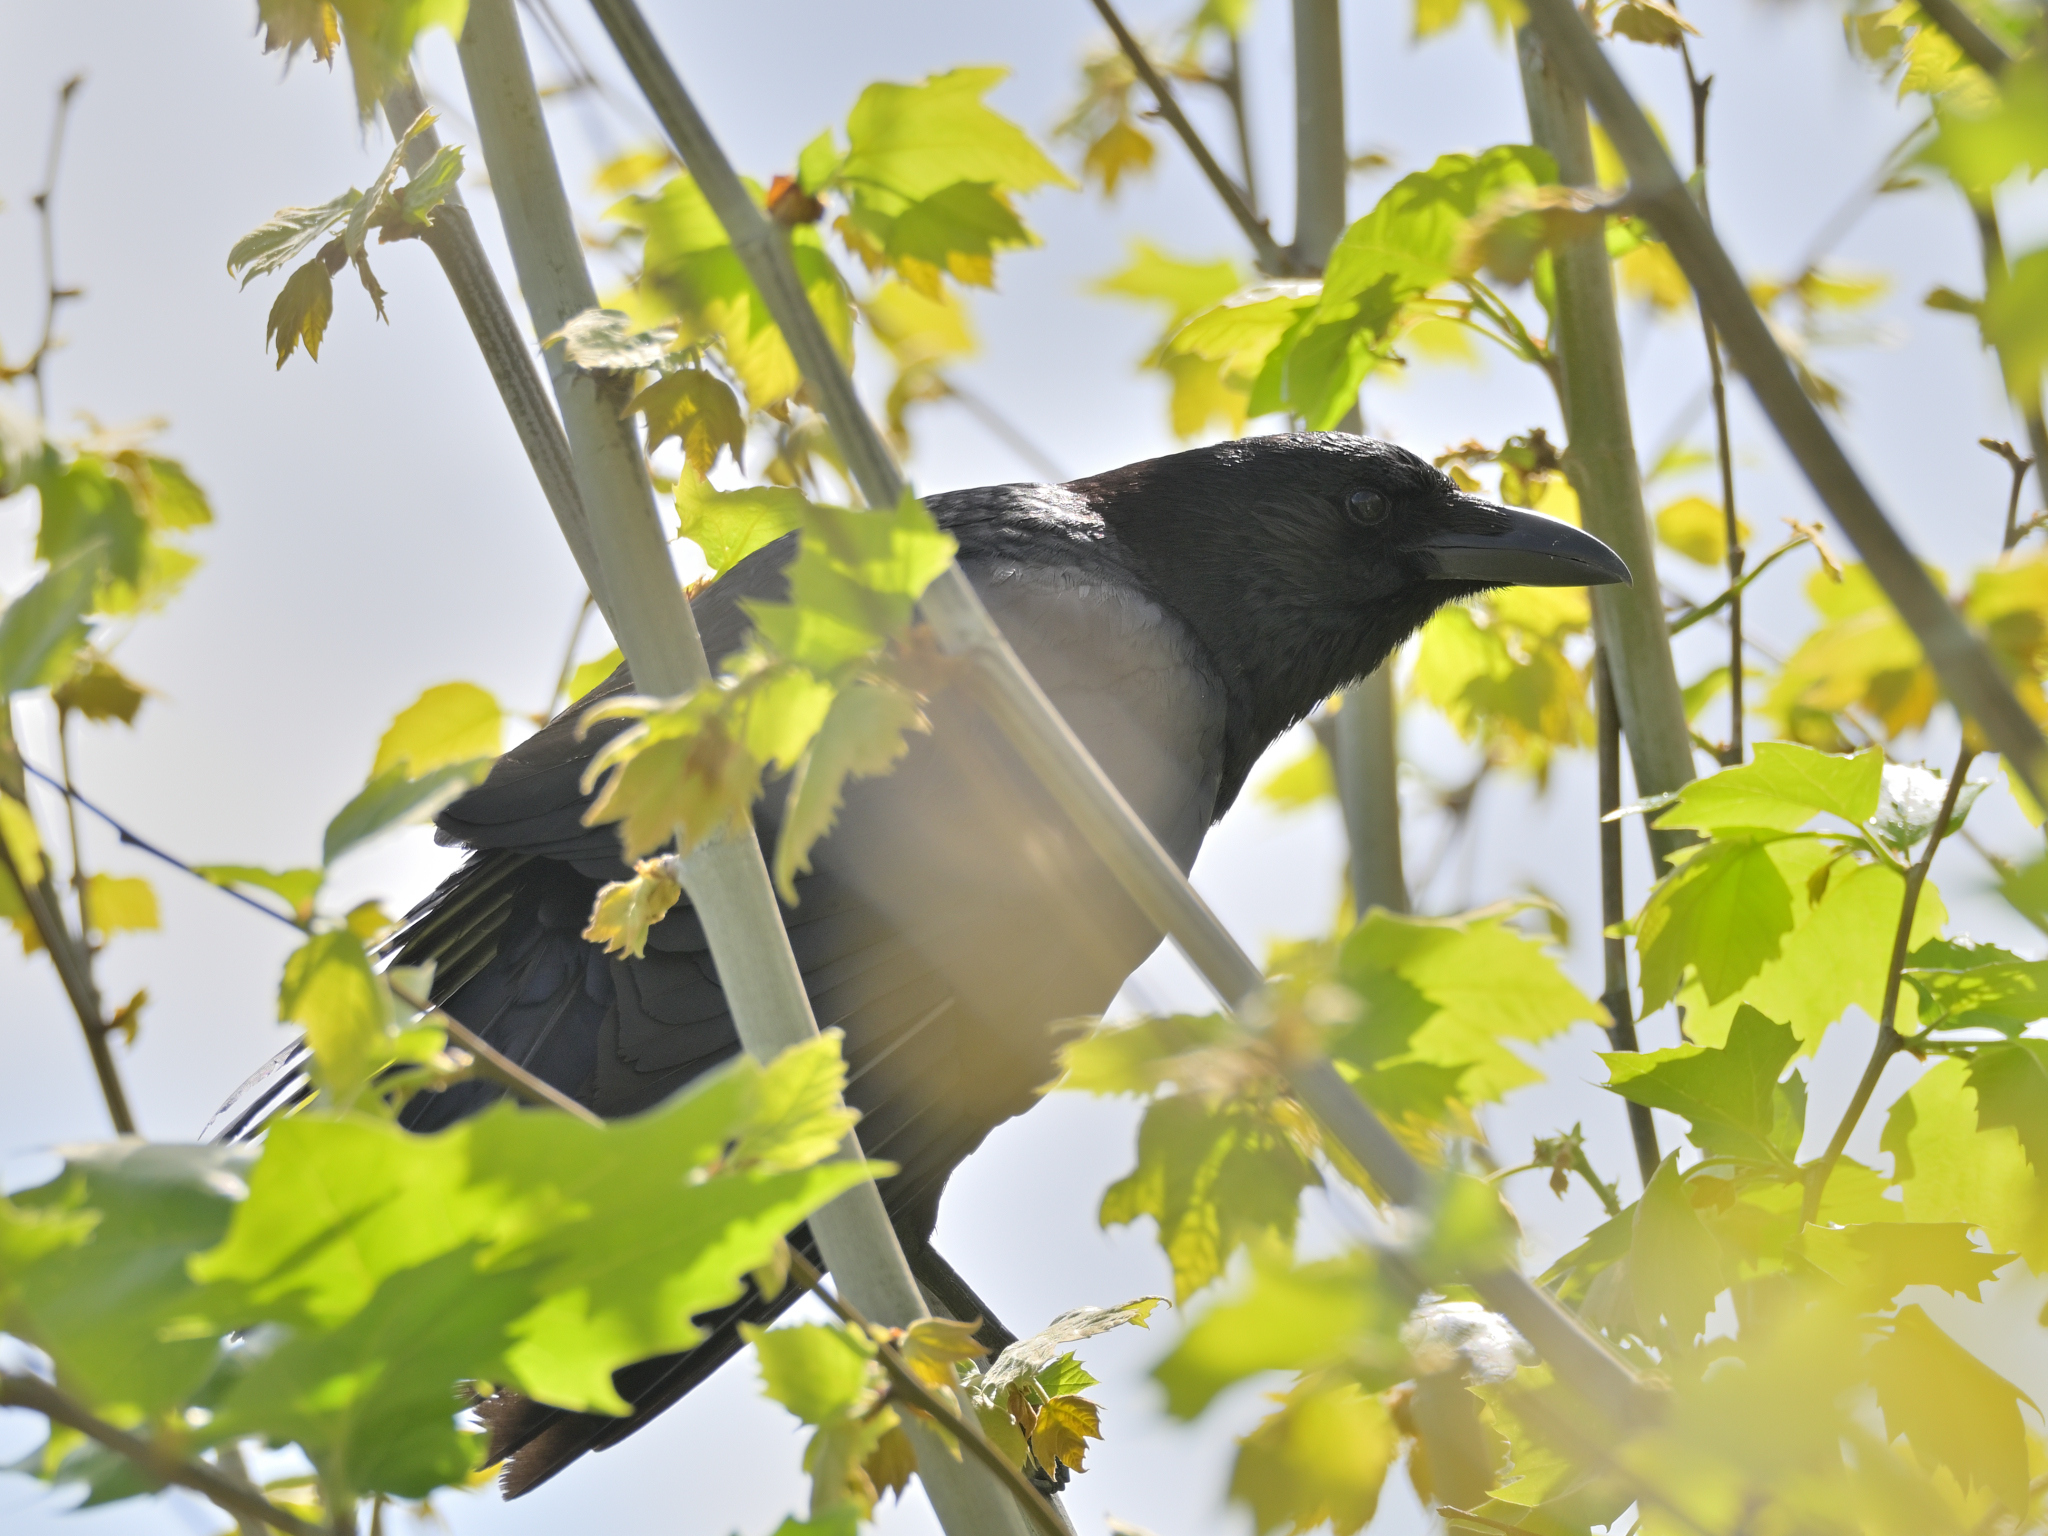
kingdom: Animalia
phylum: Chordata
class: Aves
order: Passeriformes
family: Corvidae
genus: Corvus
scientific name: Corvus corone
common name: Carrion crow
